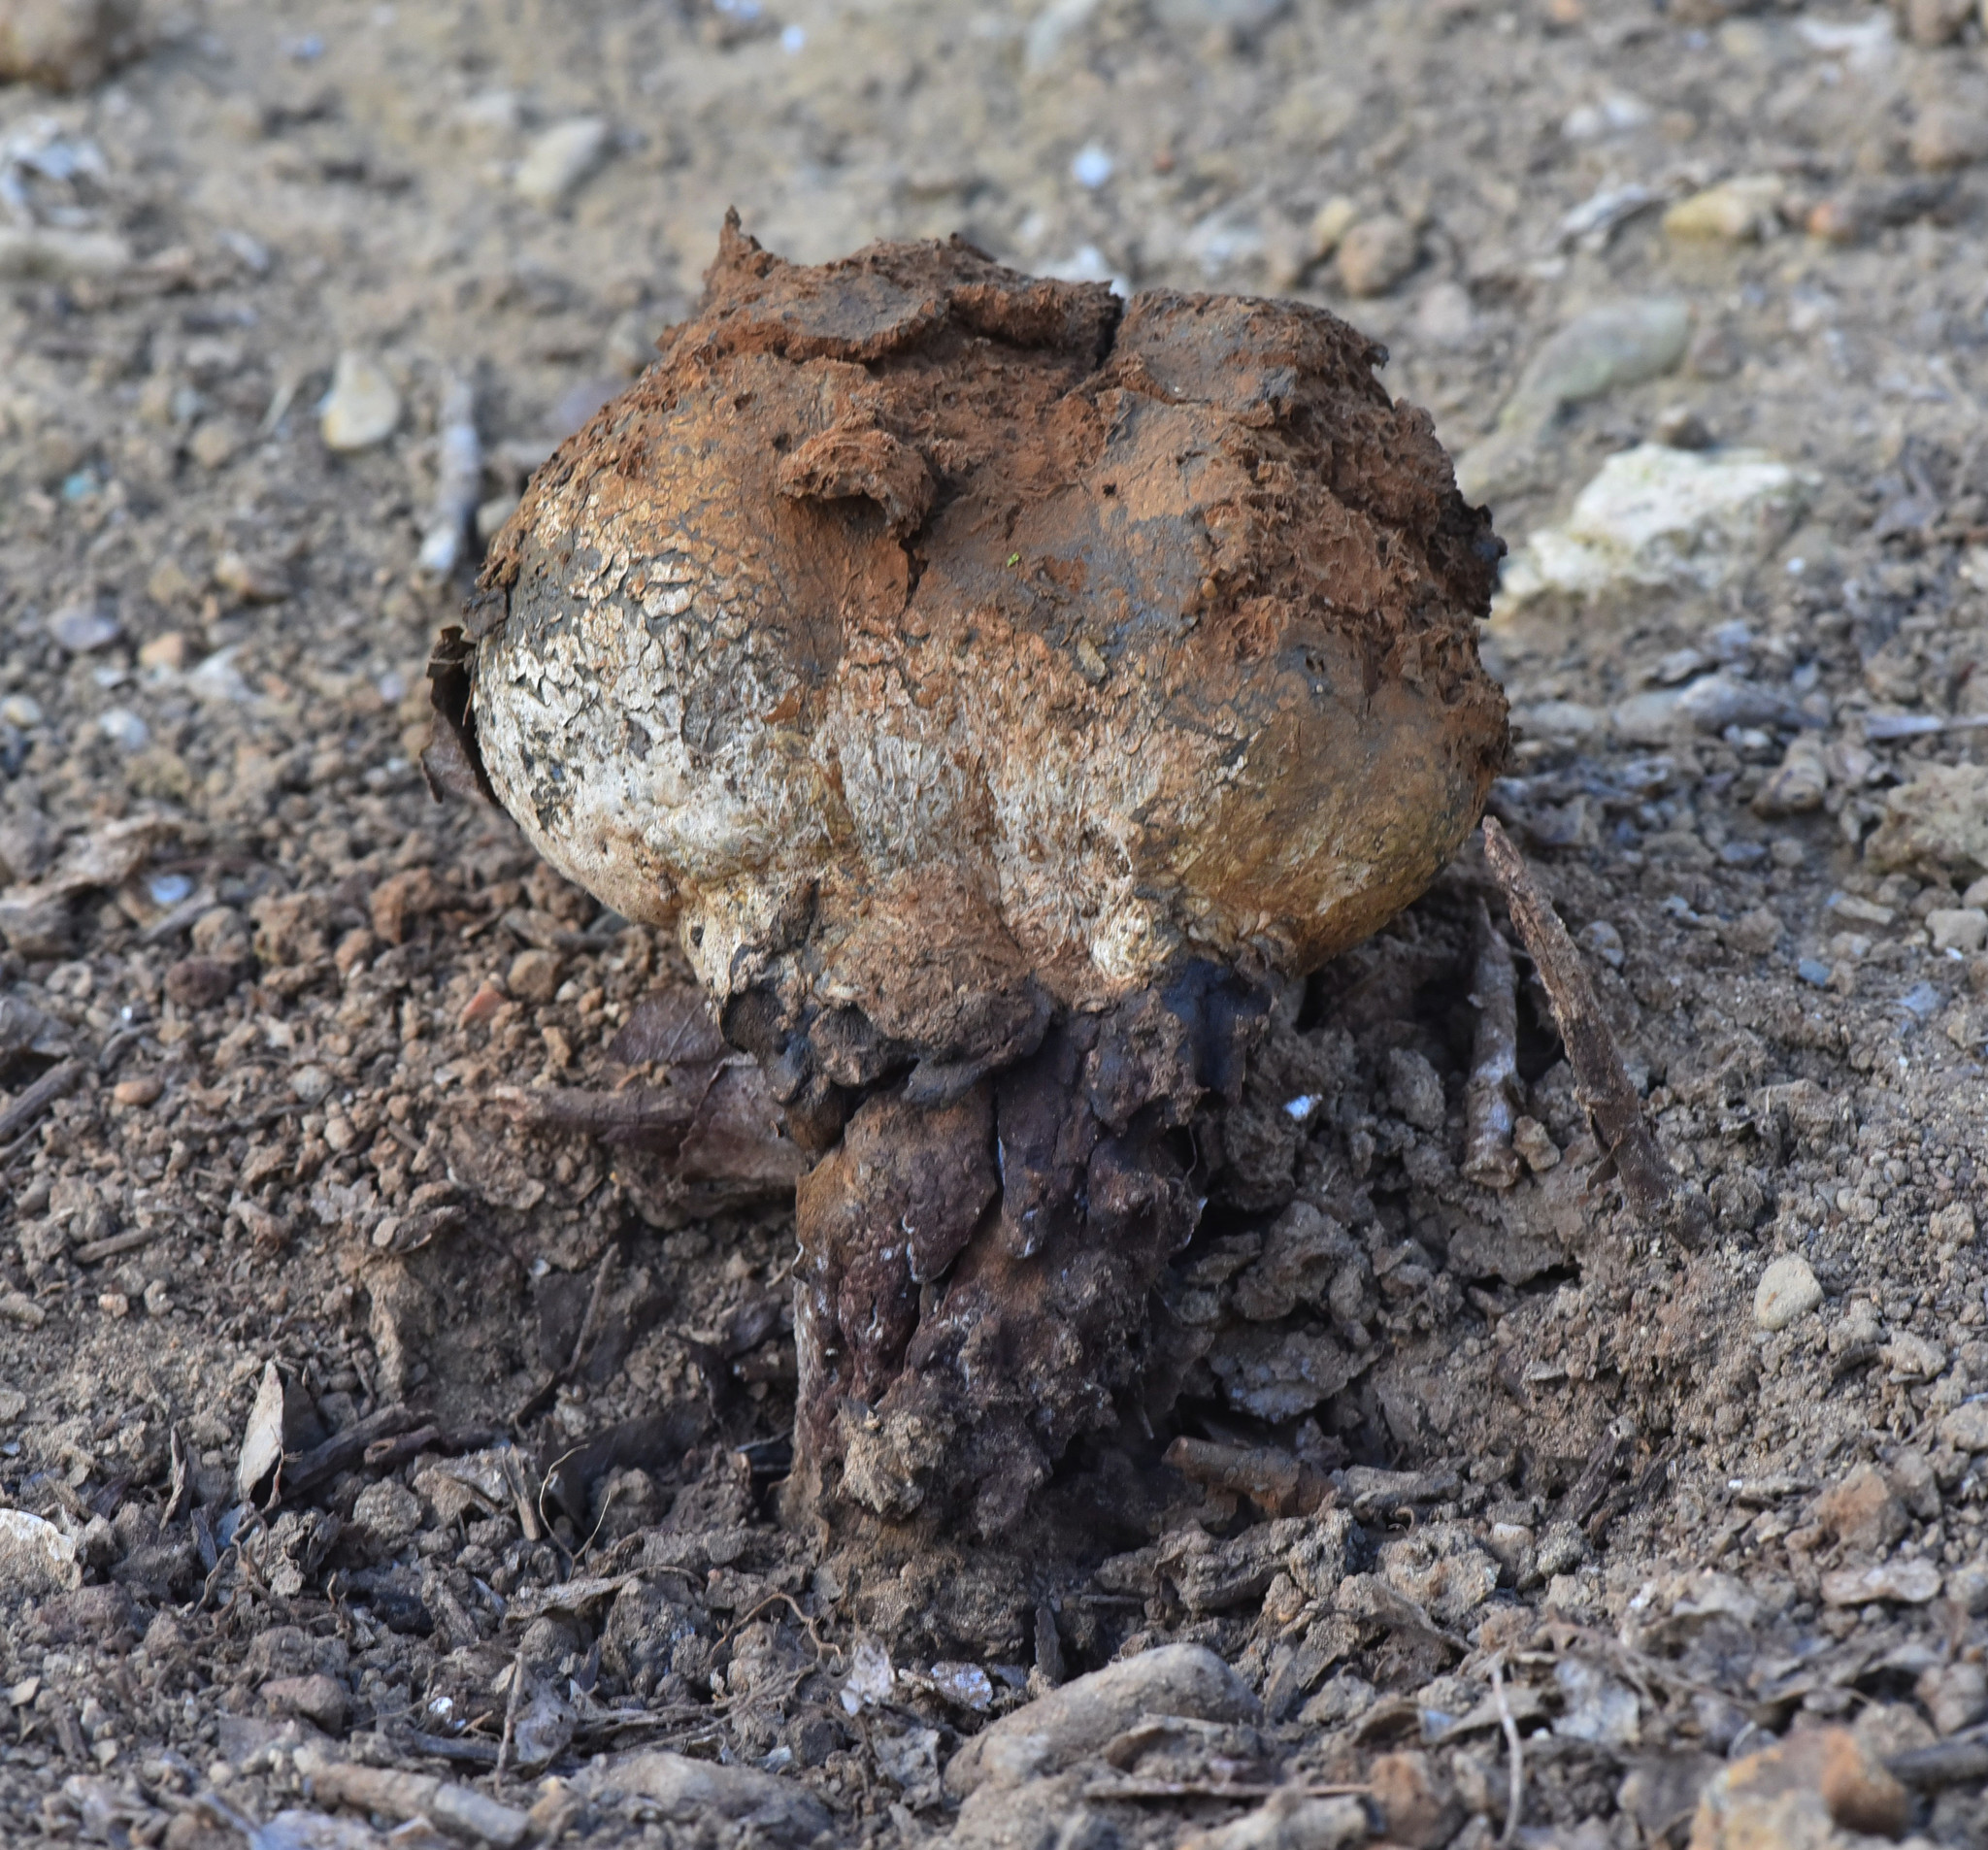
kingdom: Fungi
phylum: Basidiomycota
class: Agaricomycetes
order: Boletales
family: Sclerodermataceae
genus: Pisolithus
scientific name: Pisolithus arhizus
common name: Dyeball
